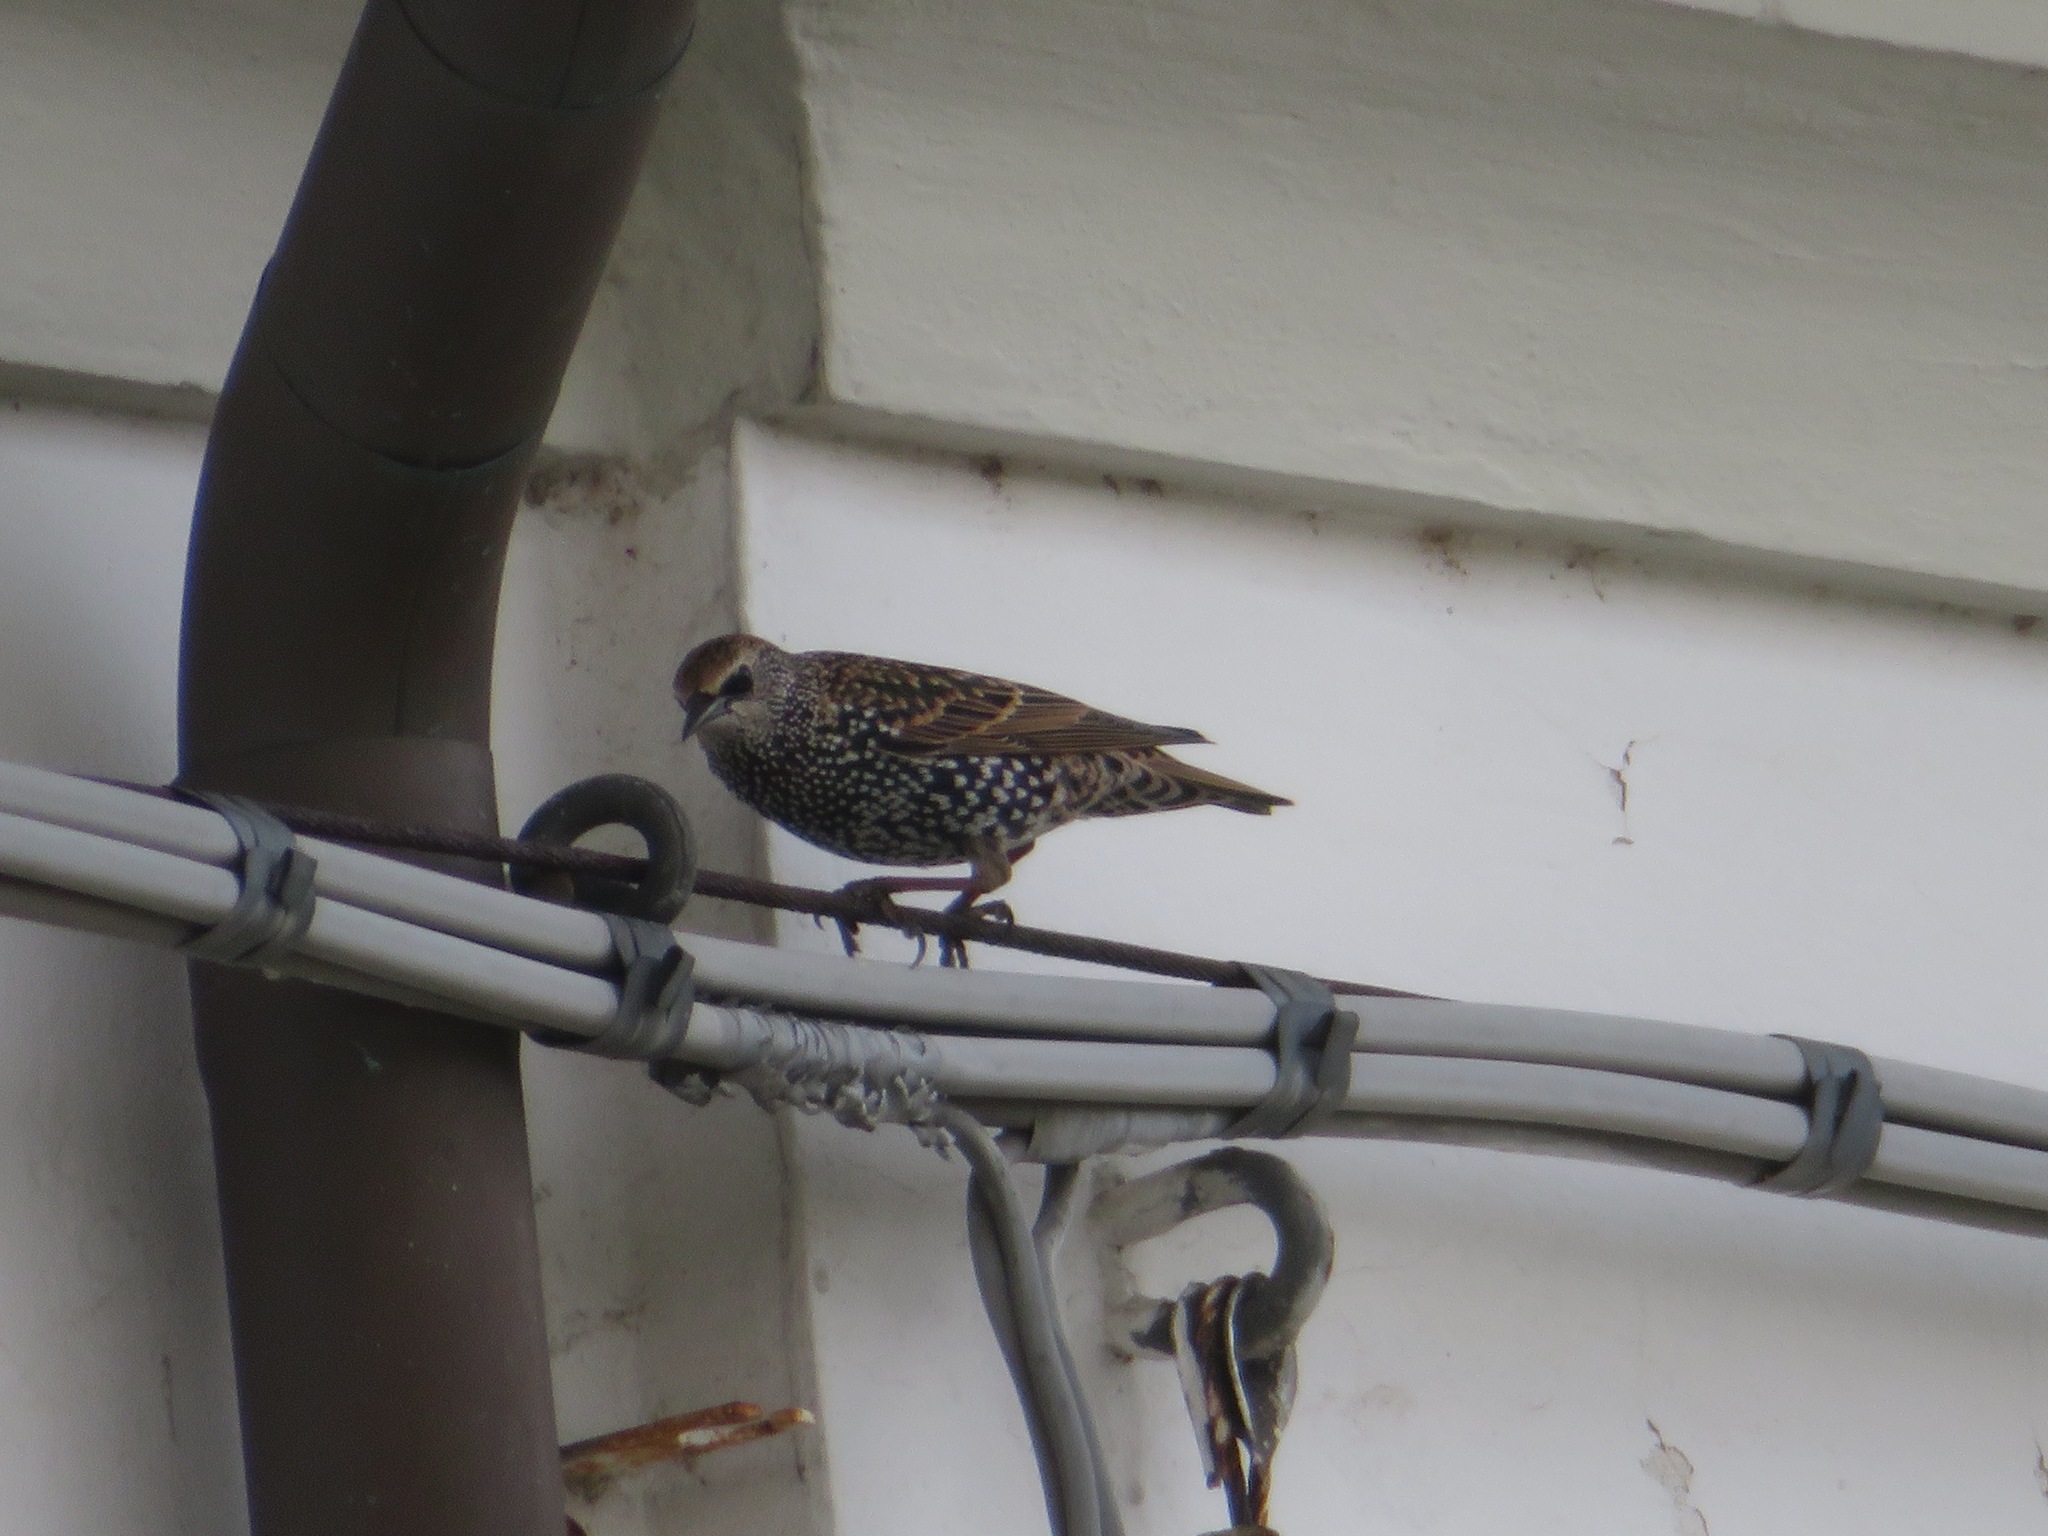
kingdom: Animalia
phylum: Chordata
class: Aves
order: Passeriformes
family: Sturnidae
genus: Sturnus
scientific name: Sturnus vulgaris
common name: Common starling
